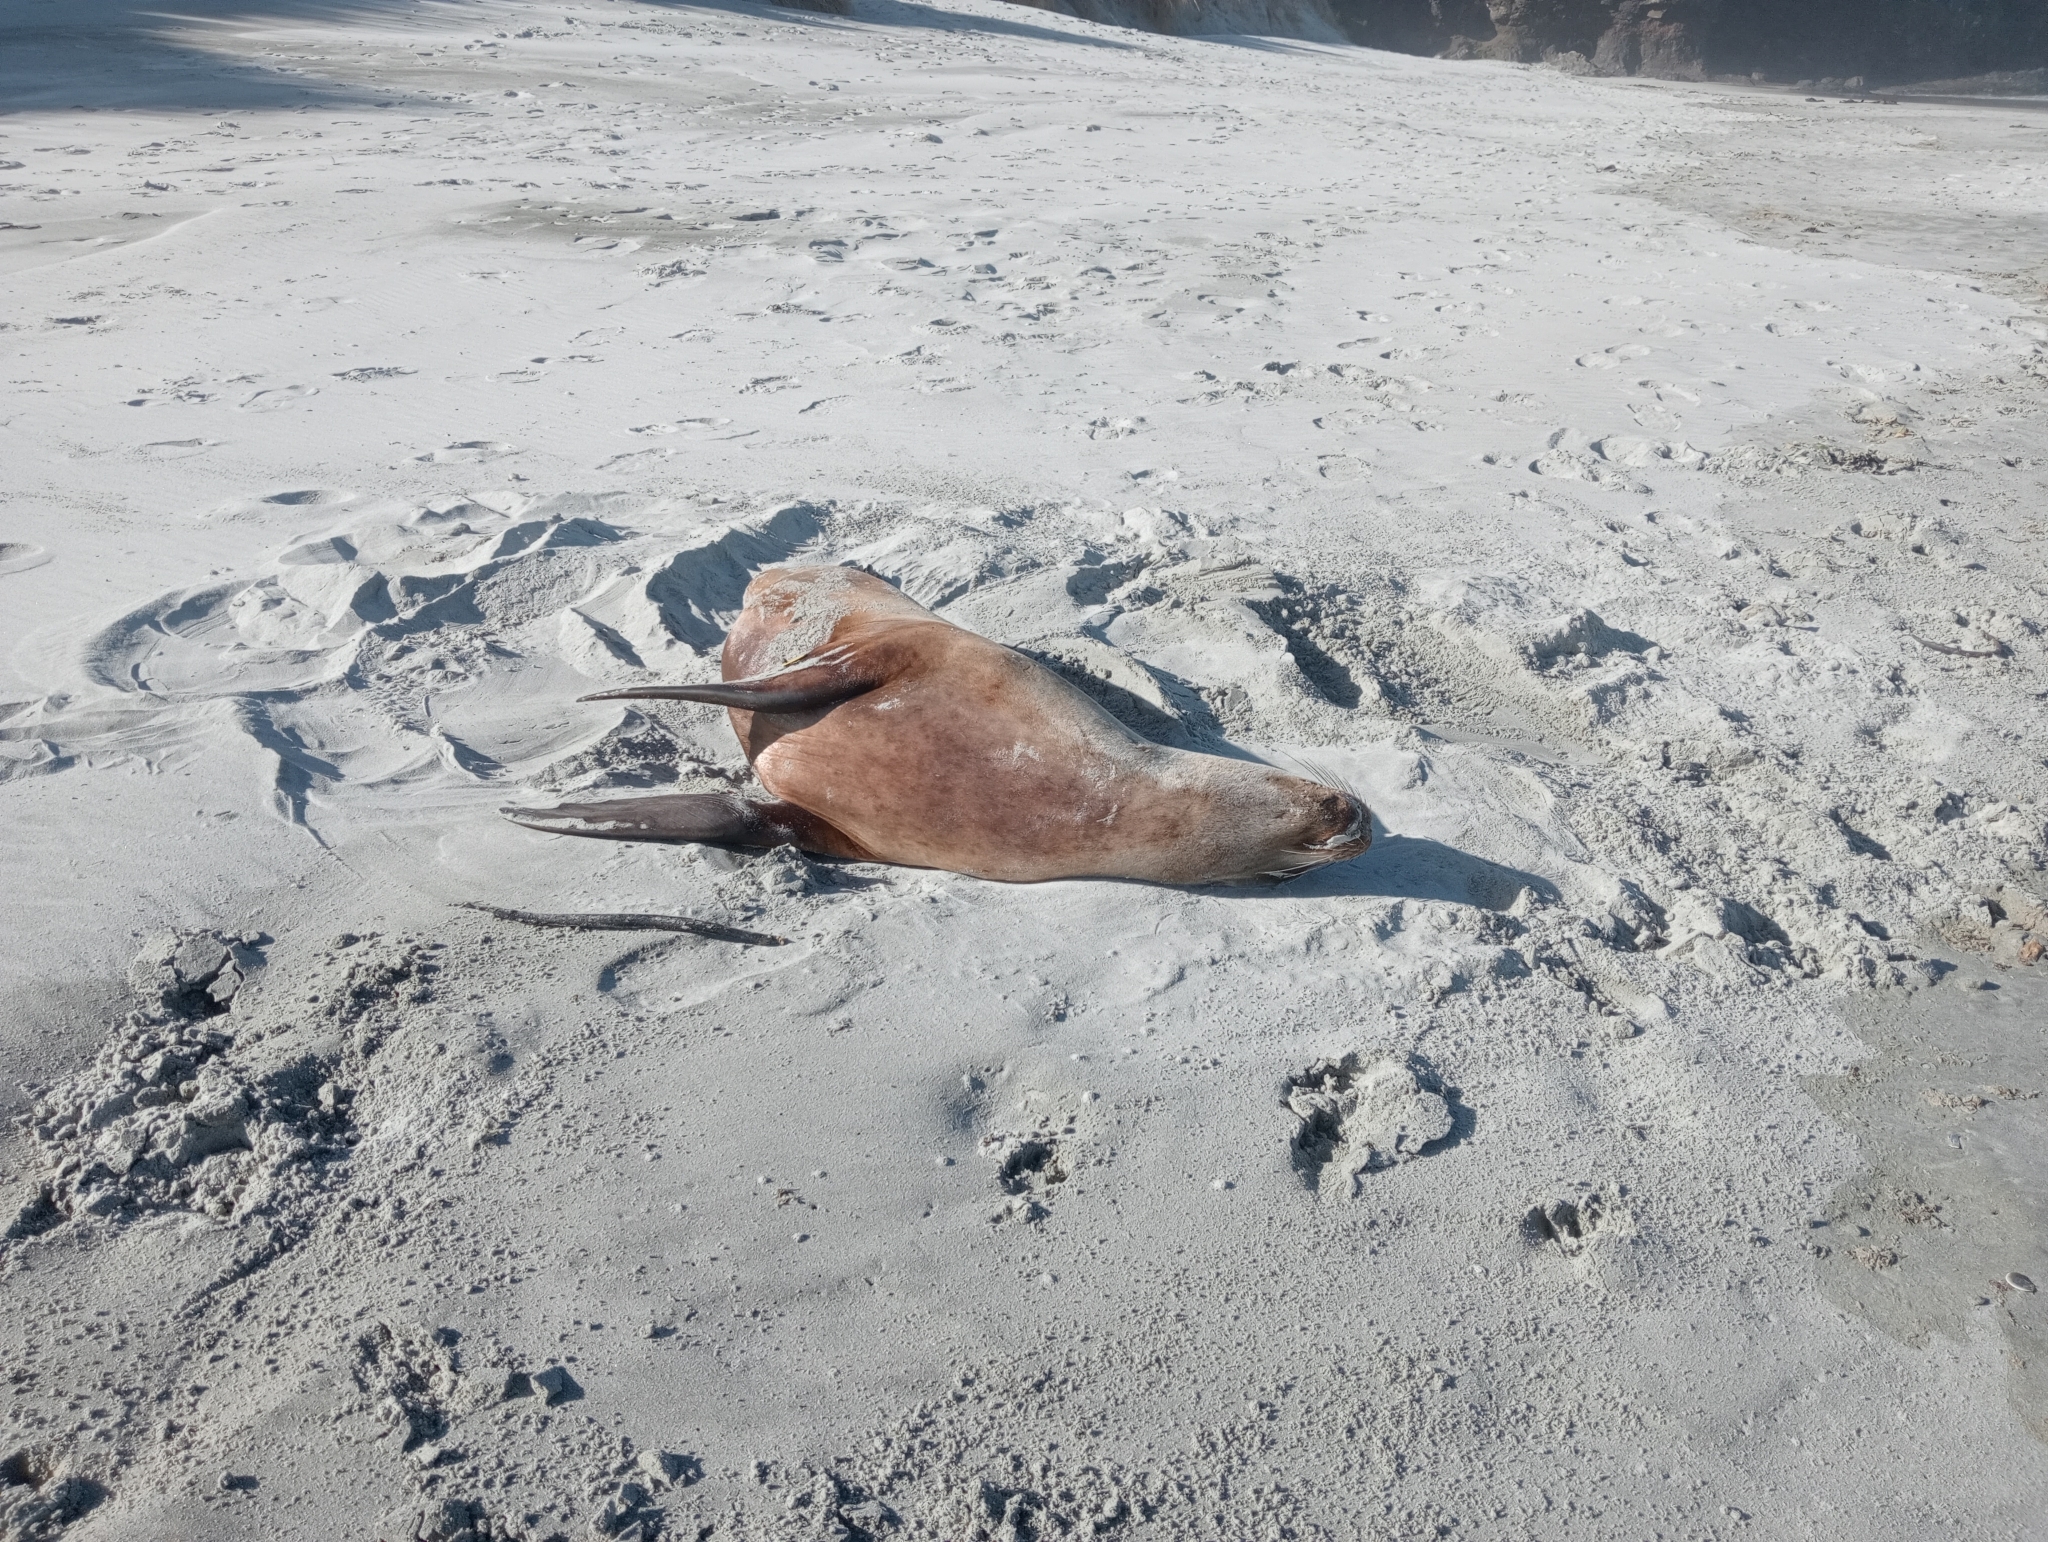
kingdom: Animalia
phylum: Chordata
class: Mammalia
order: Carnivora
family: Otariidae
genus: Phocarctos
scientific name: Phocarctos hookeri
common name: New zealand sea lion
